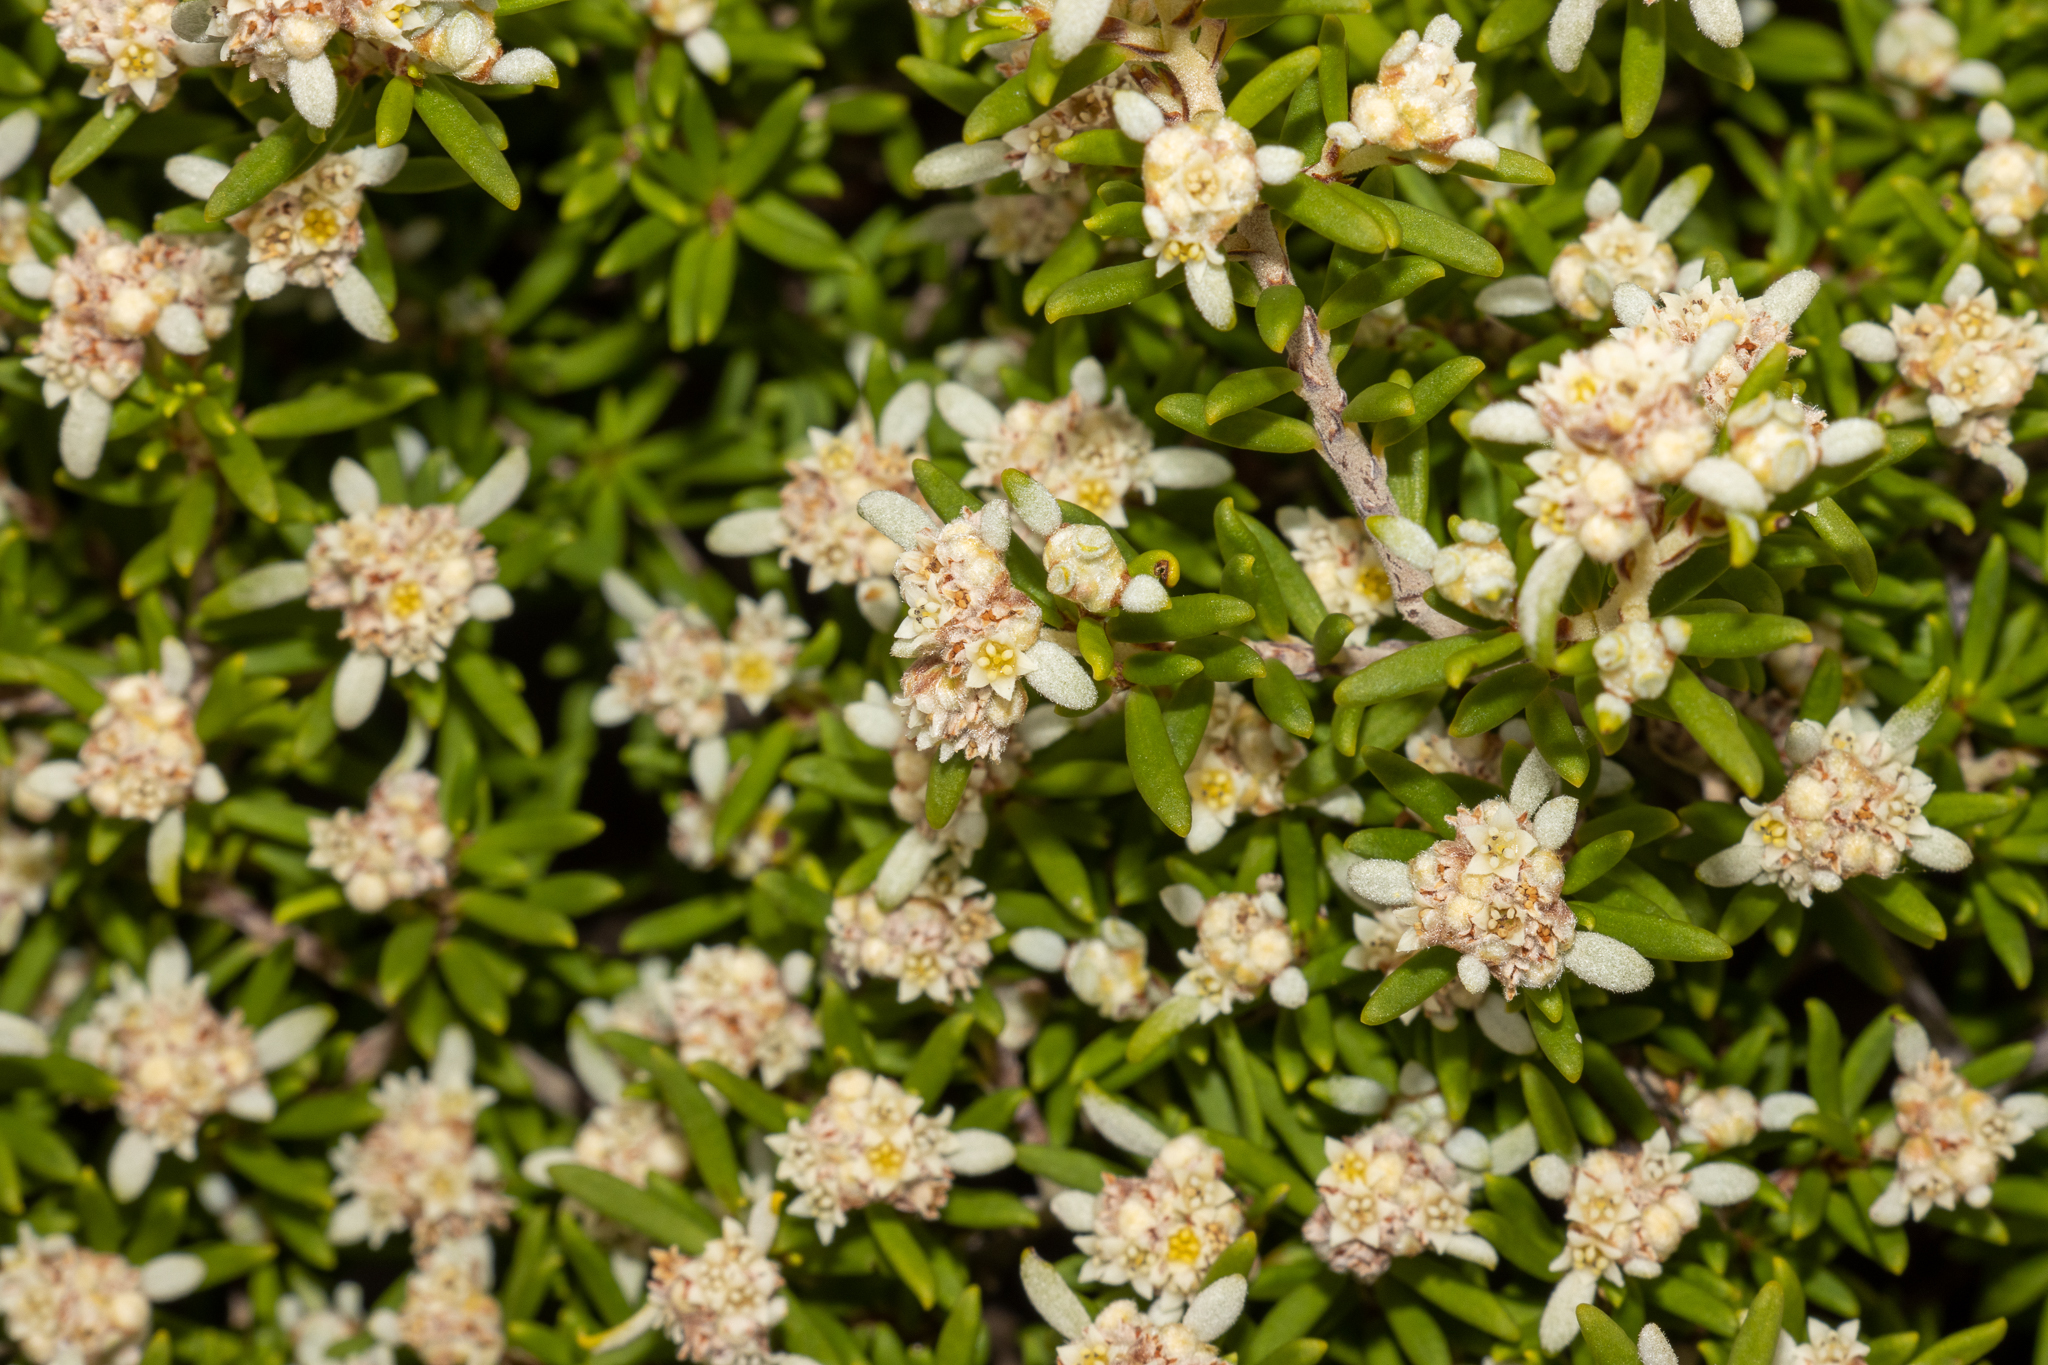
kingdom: Plantae
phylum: Tracheophyta
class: Magnoliopsida
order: Rosales
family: Rhamnaceae
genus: Spyridium
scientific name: Spyridium phylicoides
